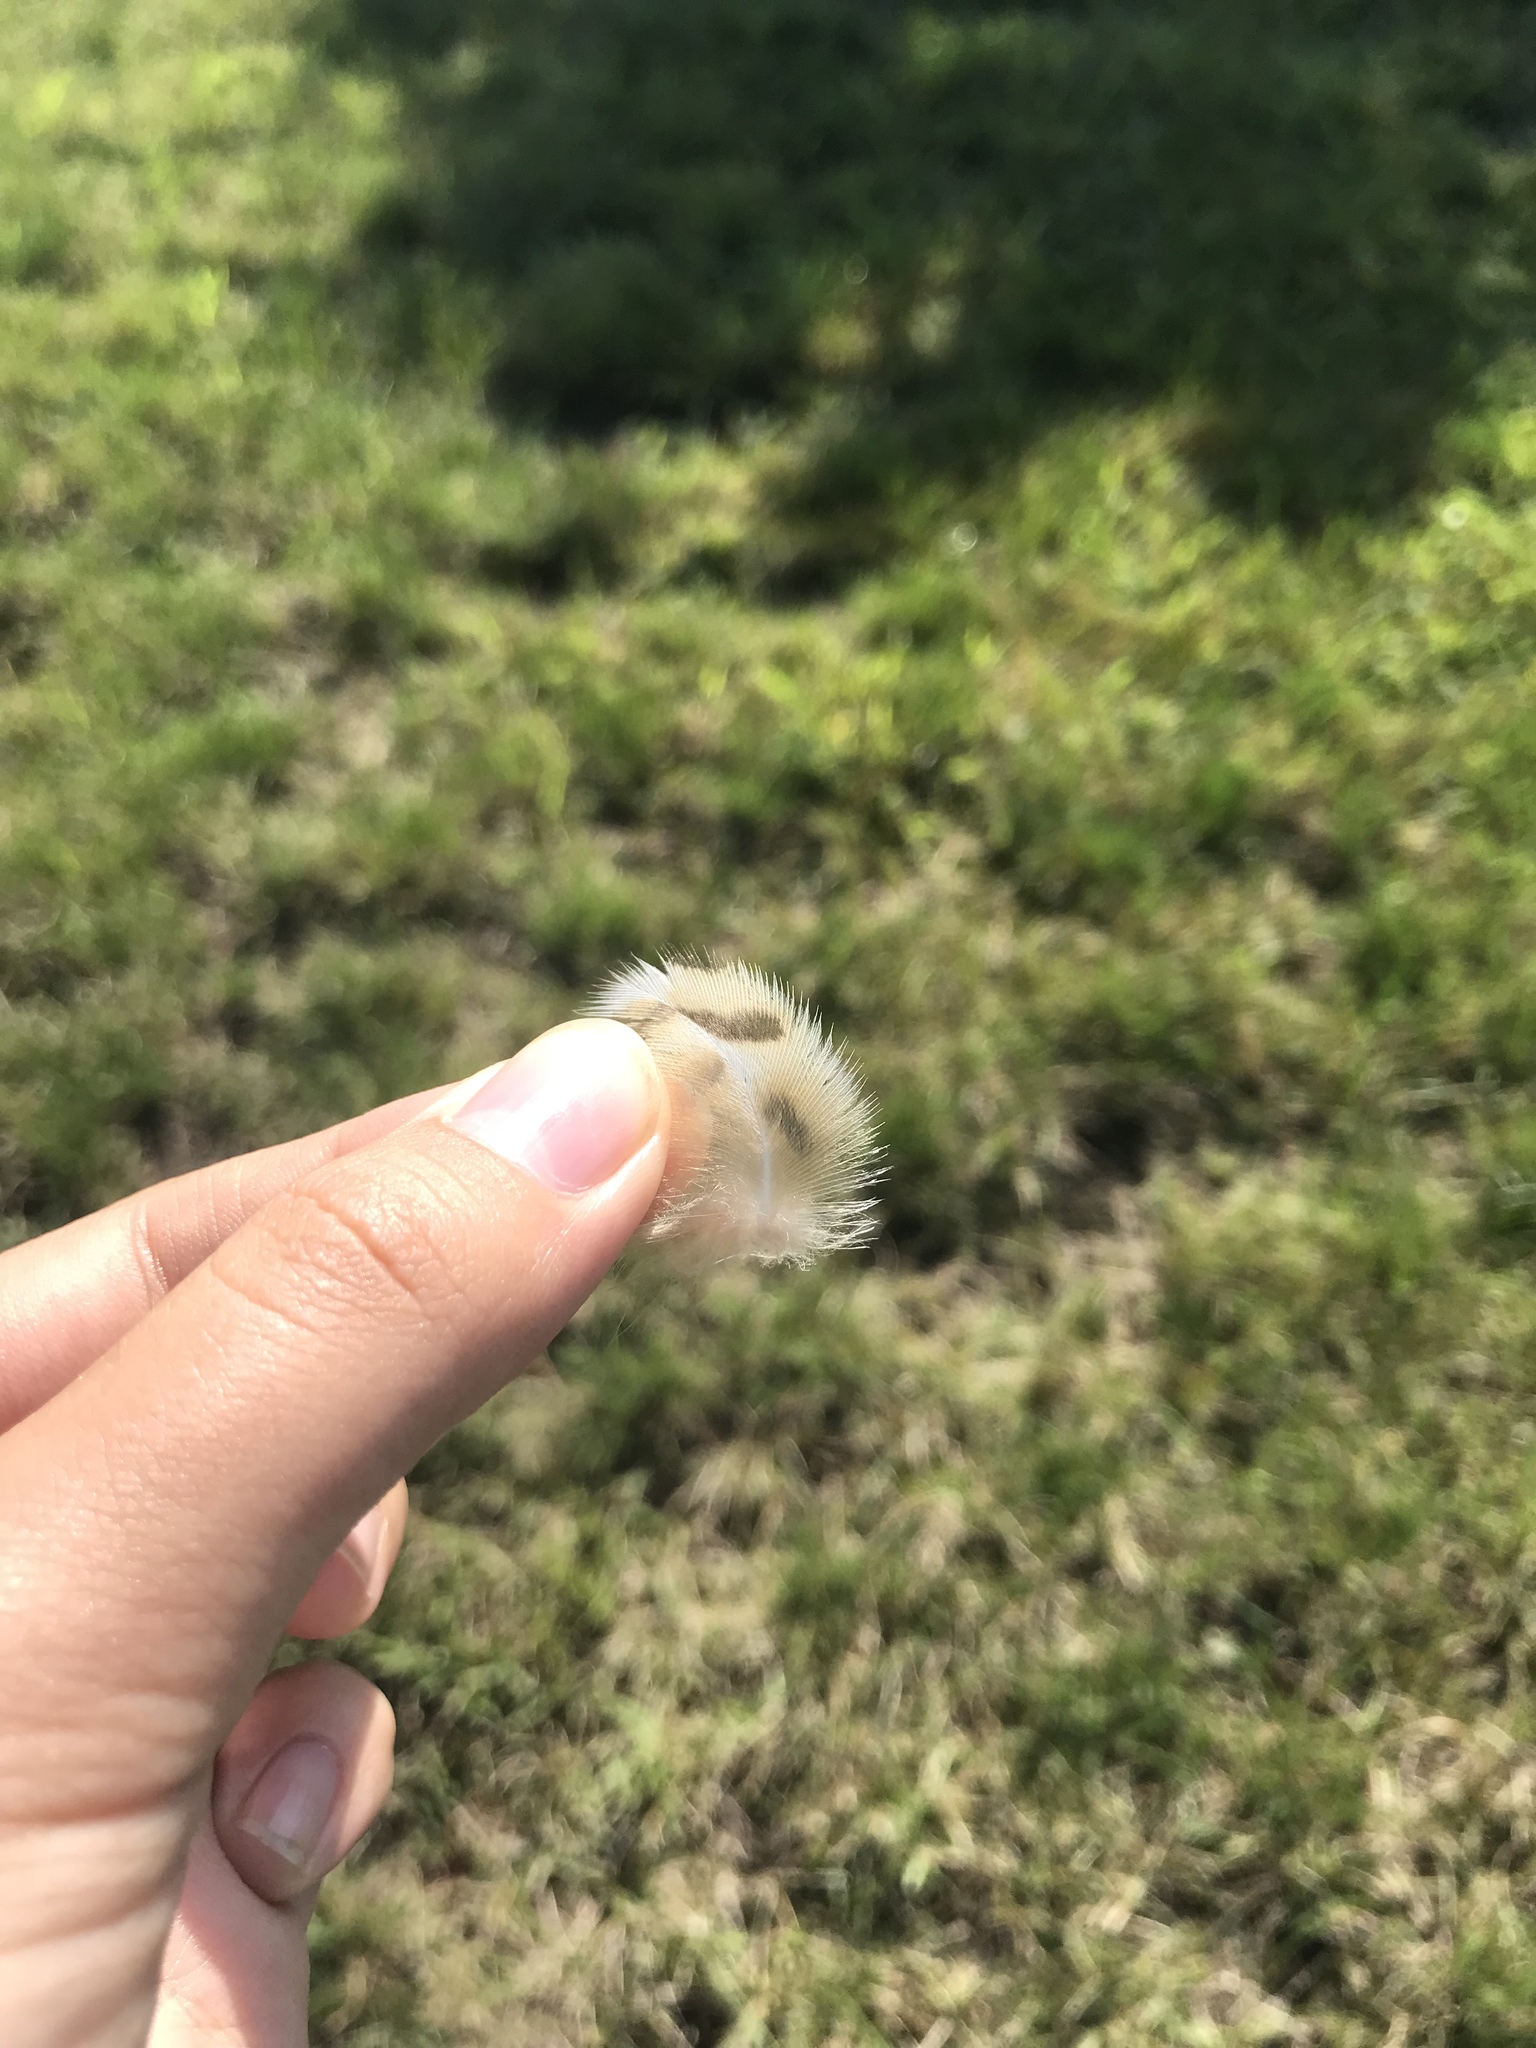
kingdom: Animalia
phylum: Chordata
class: Aves
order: Strigiformes
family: Strigidae
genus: Bubo
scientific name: Bubo virginianus
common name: Great horned owl
